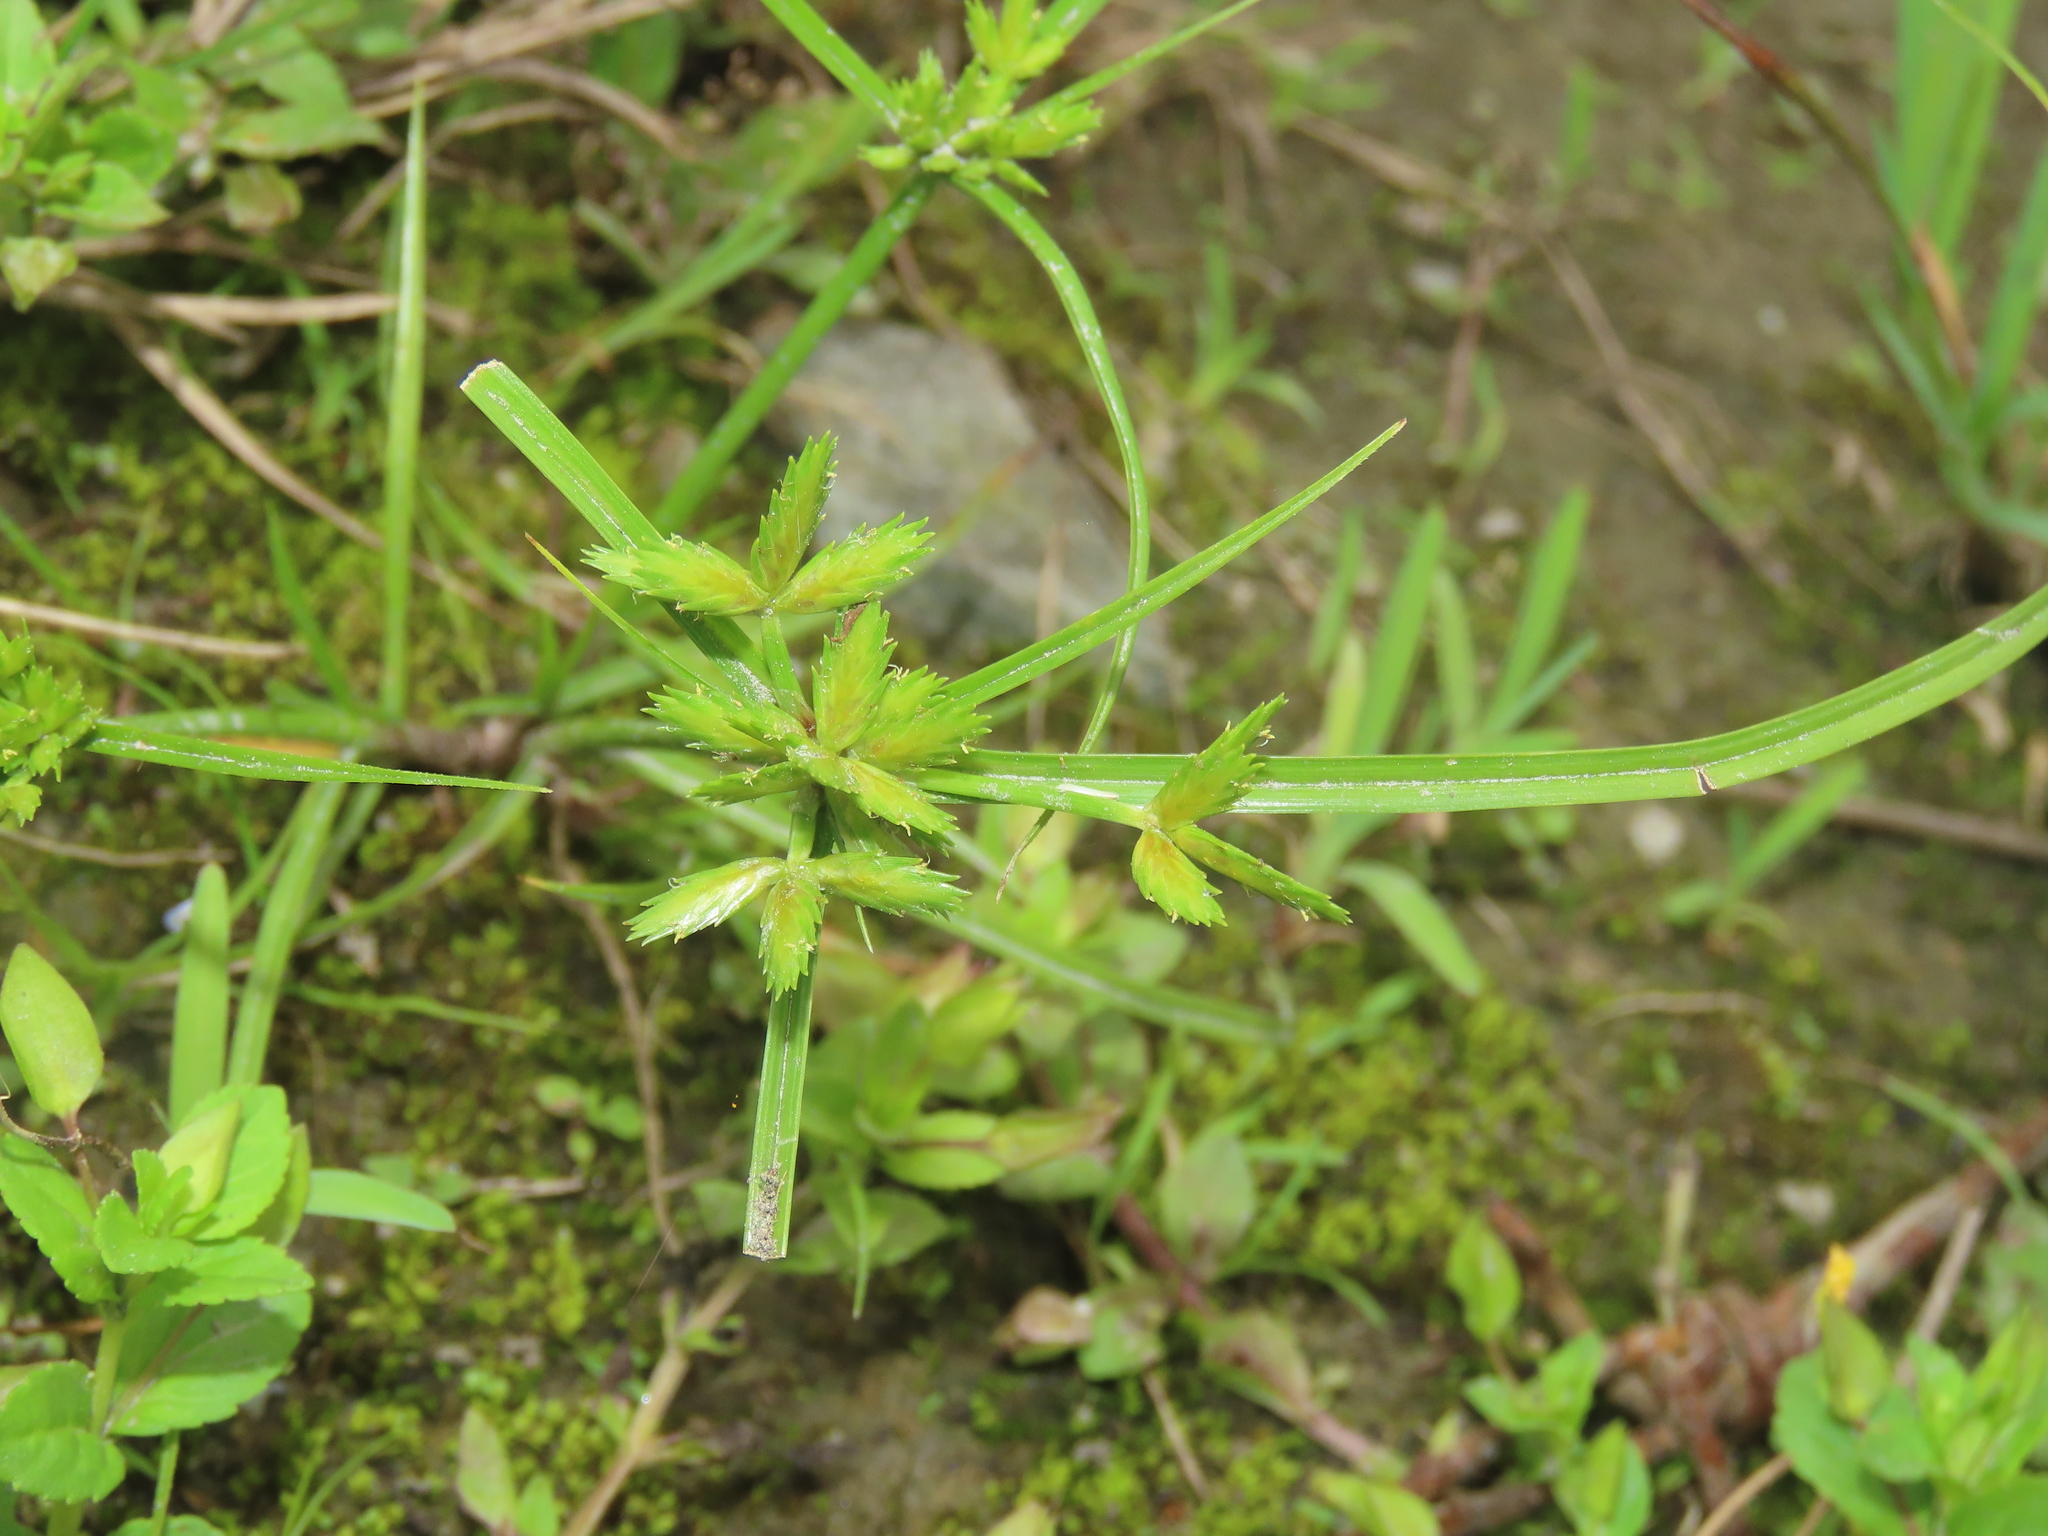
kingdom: Plantae
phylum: Tracheophyta
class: Liliopsida
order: Poales
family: Cyperaceae
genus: Cyperus
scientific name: Cyperus compressus
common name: Poorland flatsedge
